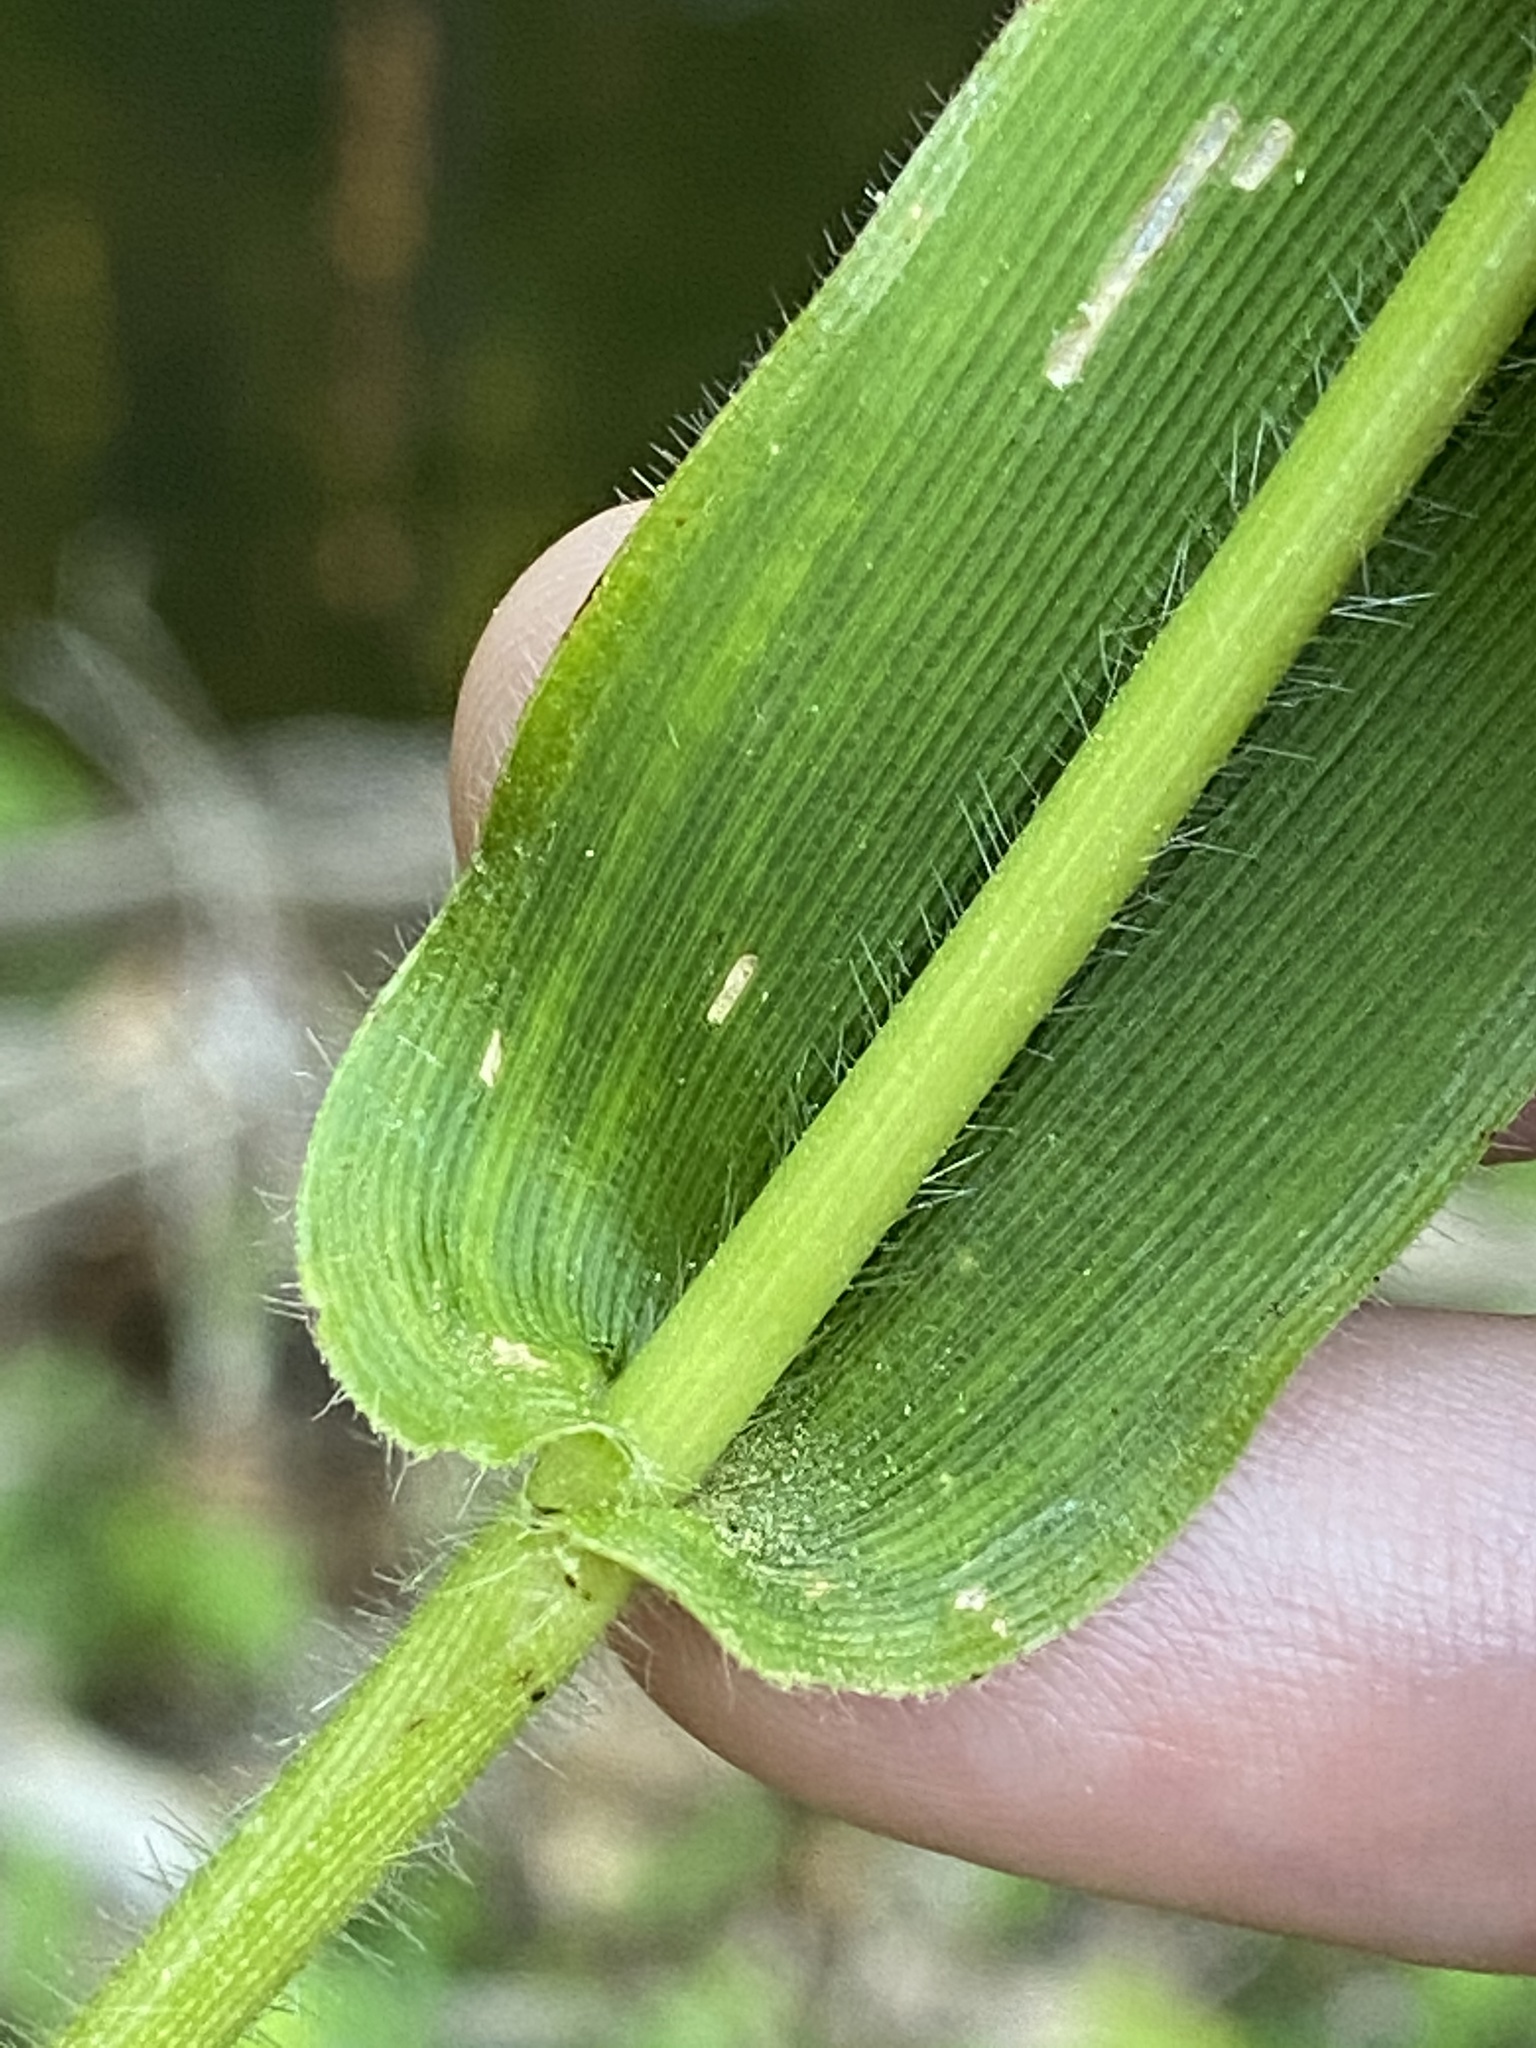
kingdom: Plantae
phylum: Tracheophyta
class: Liliopsida
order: Poales
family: Poaceae
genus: Dichanthelium
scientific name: Dichanthelium clandestinum
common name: Deer-tongue grass
